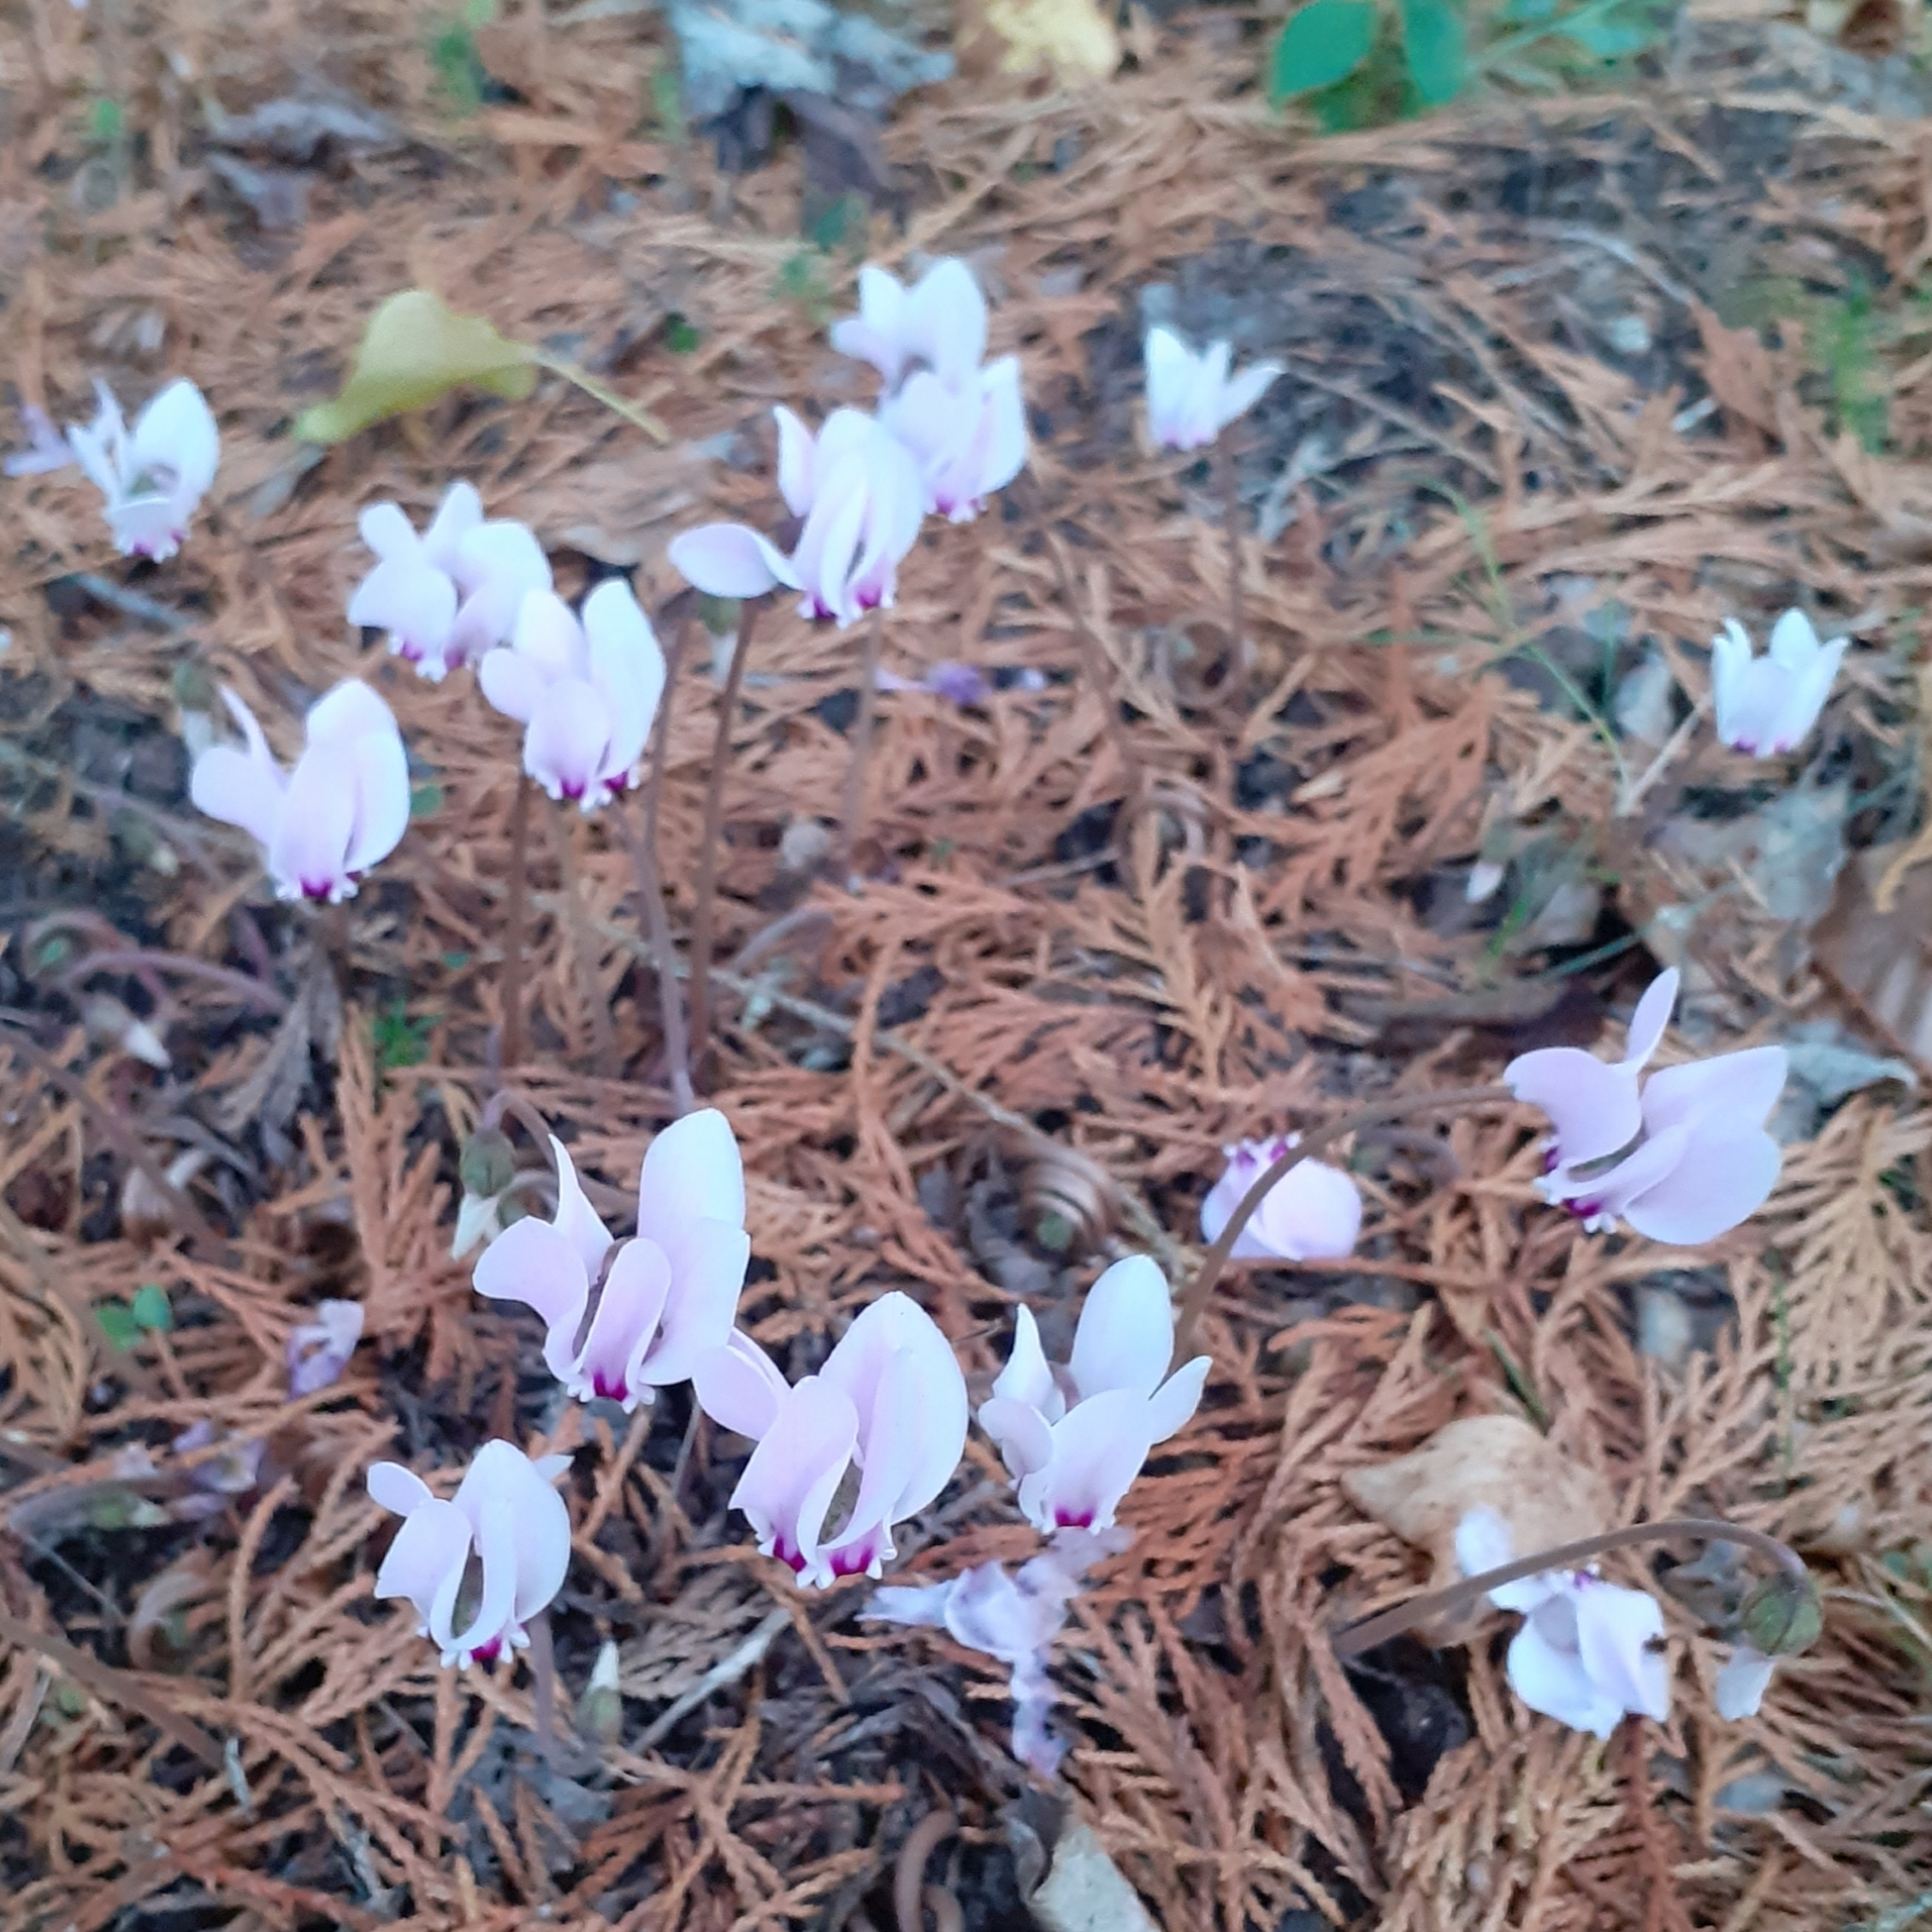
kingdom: Plantae
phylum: Tracheophyta
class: Magnoliopsida
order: Ericales
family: Primulaceae
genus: Cyclamen
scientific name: Cyclamen hederifolium
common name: Sowbread
